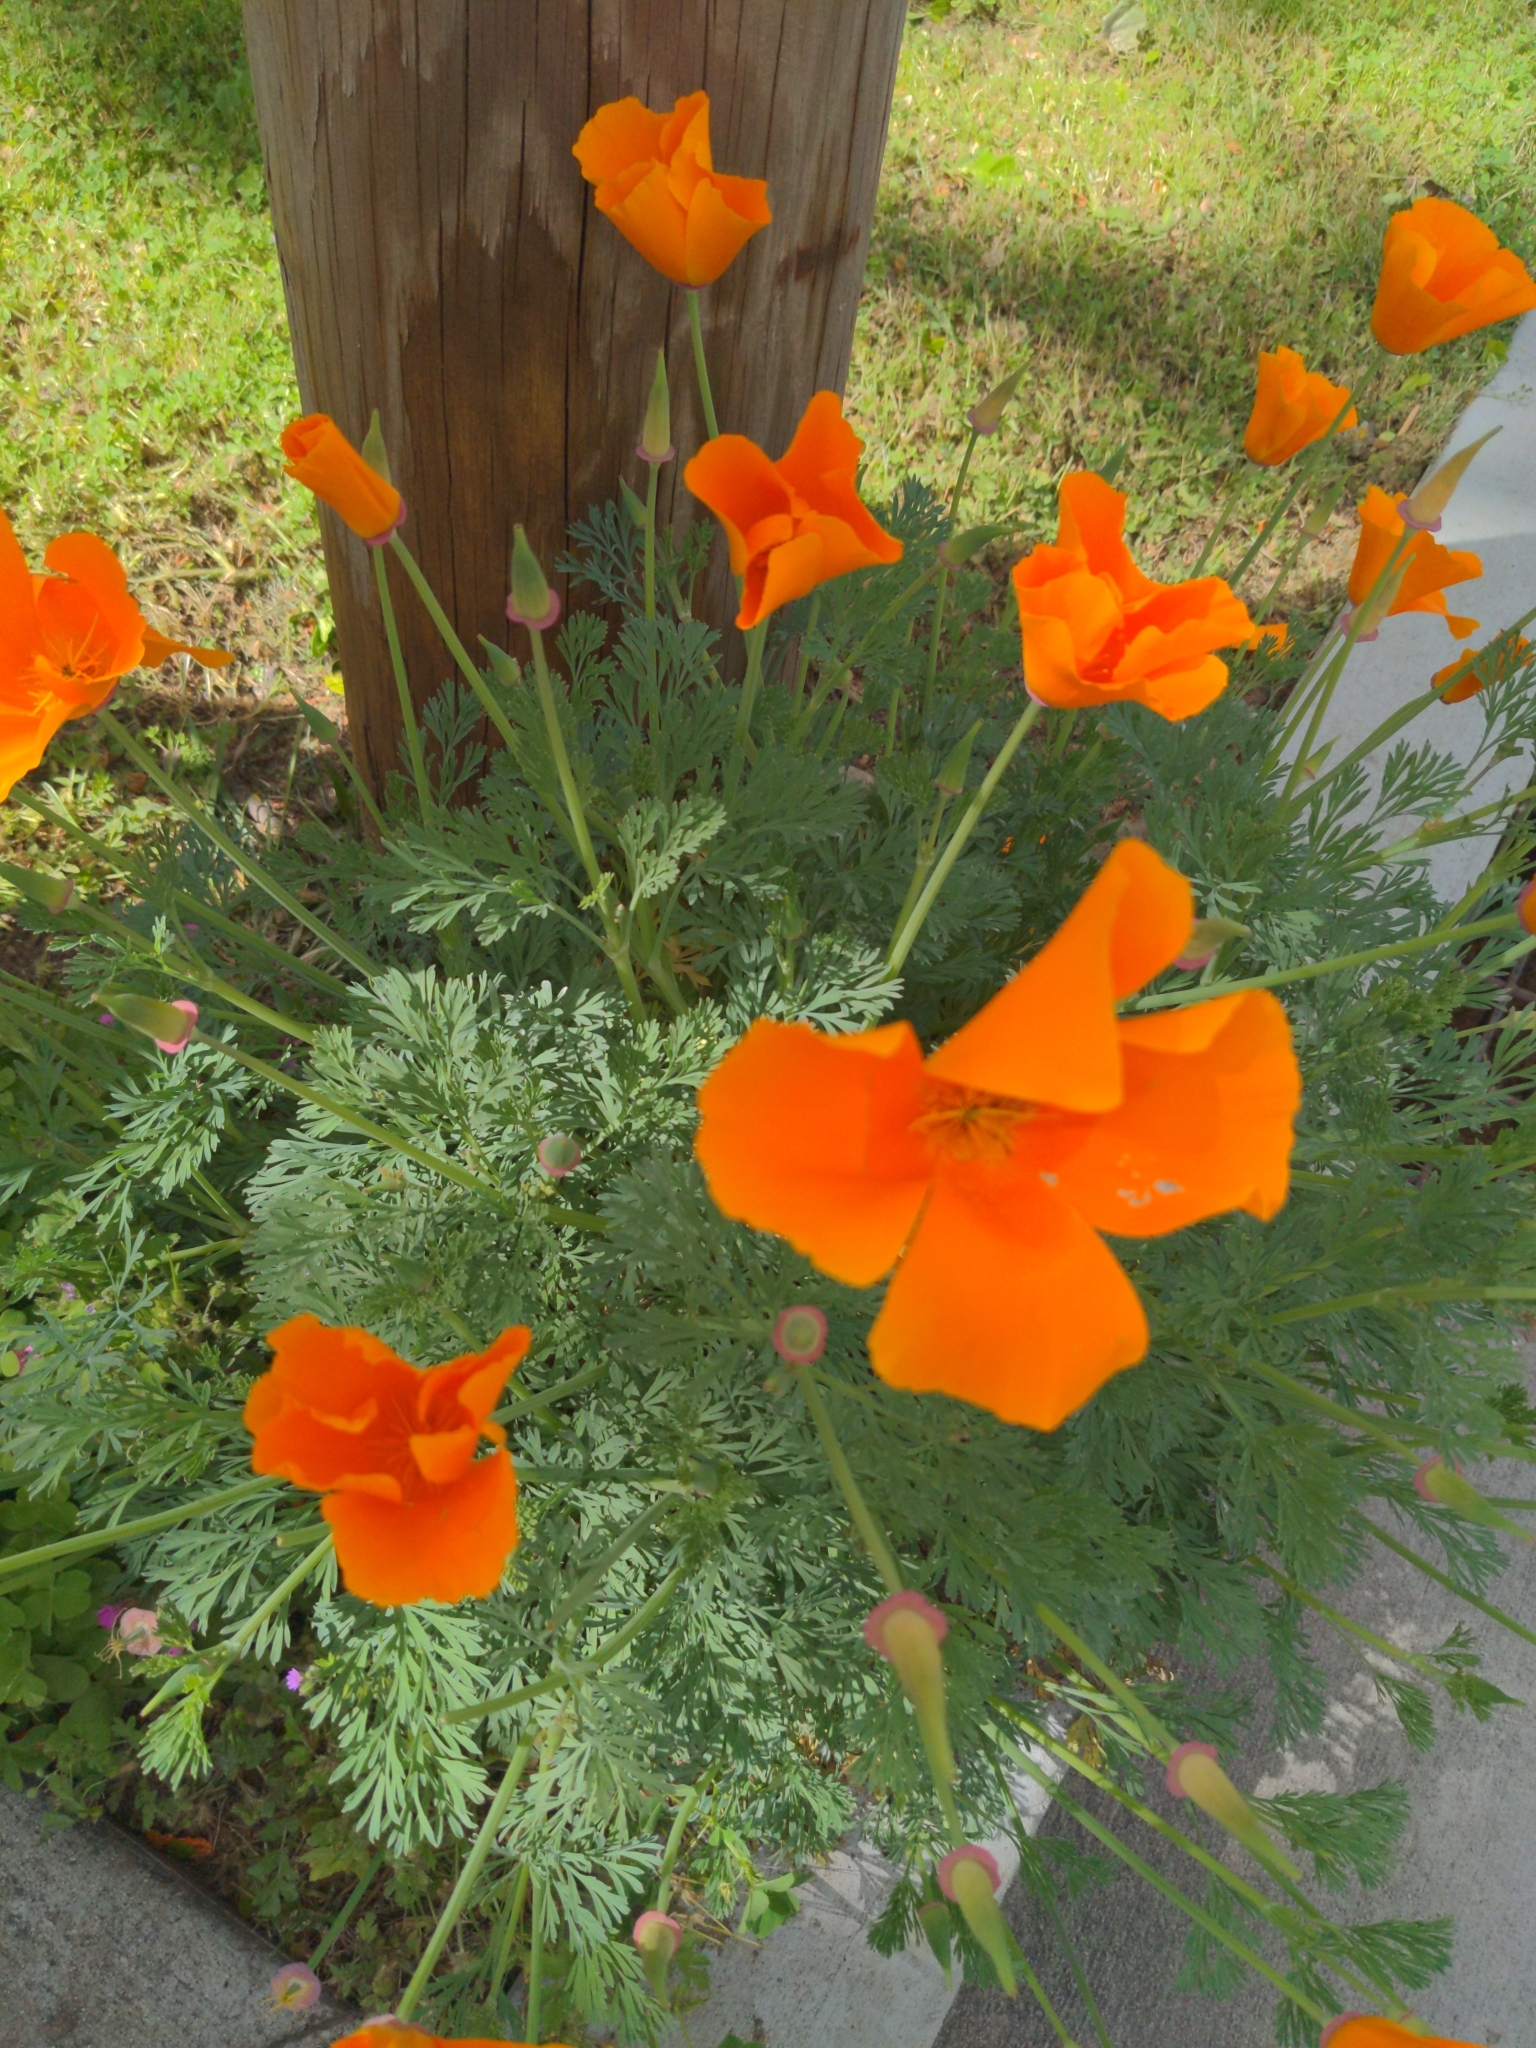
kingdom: Plantae
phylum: Tracheophyta
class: Magnoliopsida
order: Ranunculales
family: Papaveraceae
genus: Eschscholzia
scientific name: Eschscholzia californica
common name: California poppy
